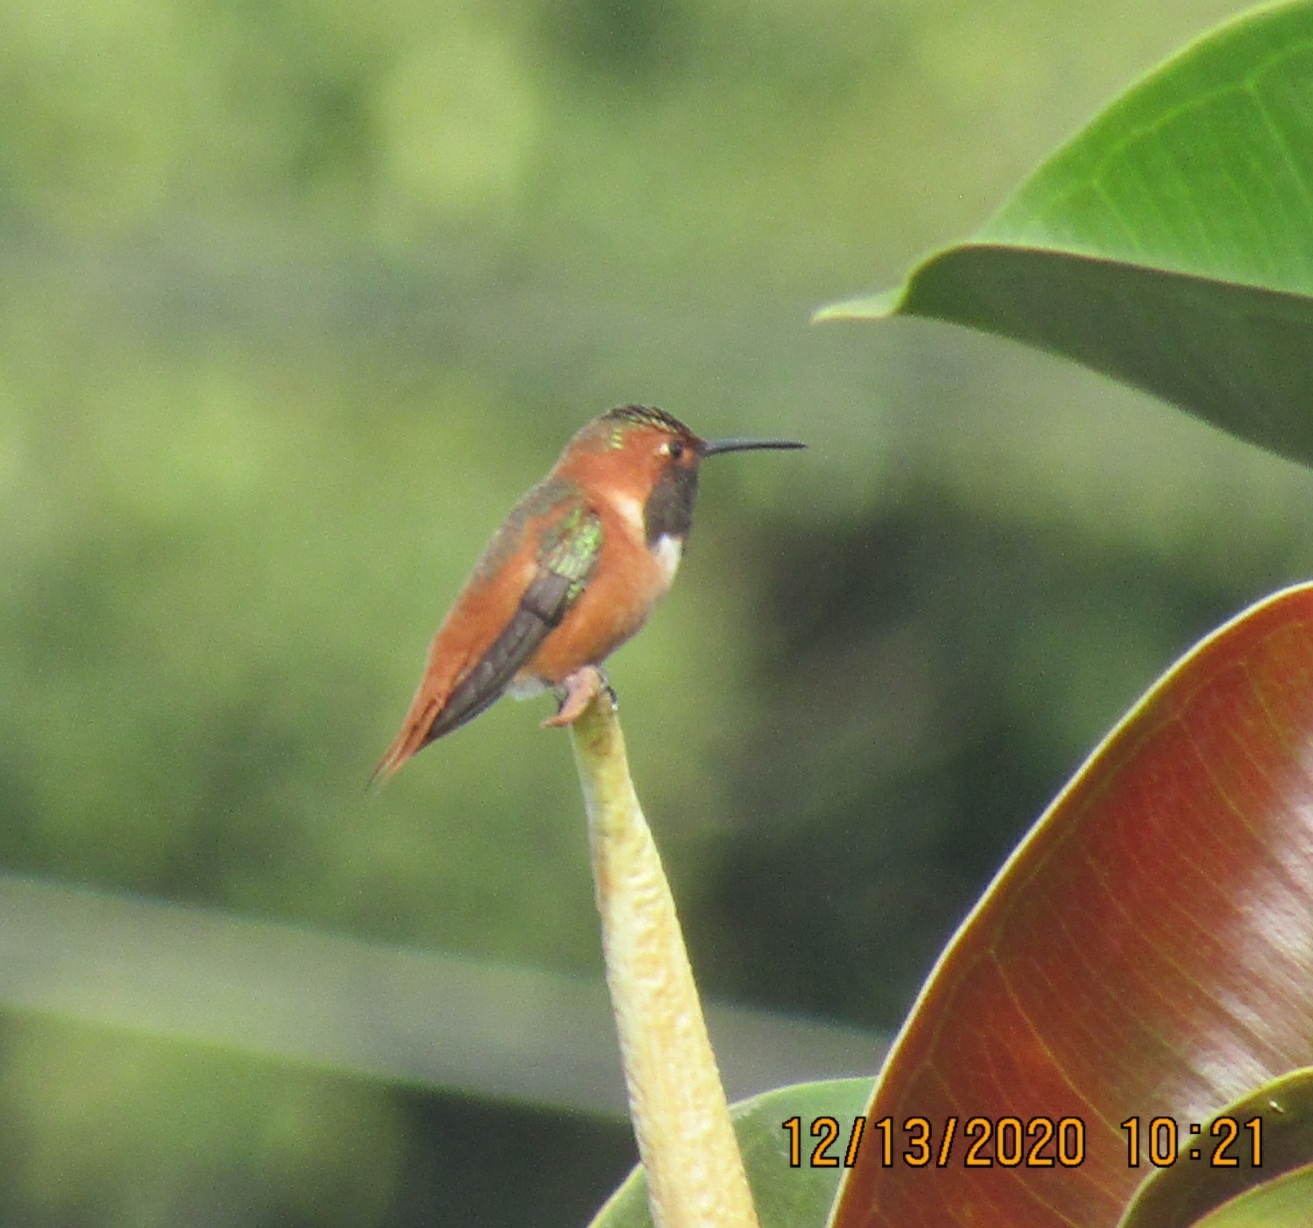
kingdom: Animalia
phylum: Chordata
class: Aves
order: Apodiformes
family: Trochilidae
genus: Selasphorus
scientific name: Selasphorus sasin
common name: Allen's hummingbird
